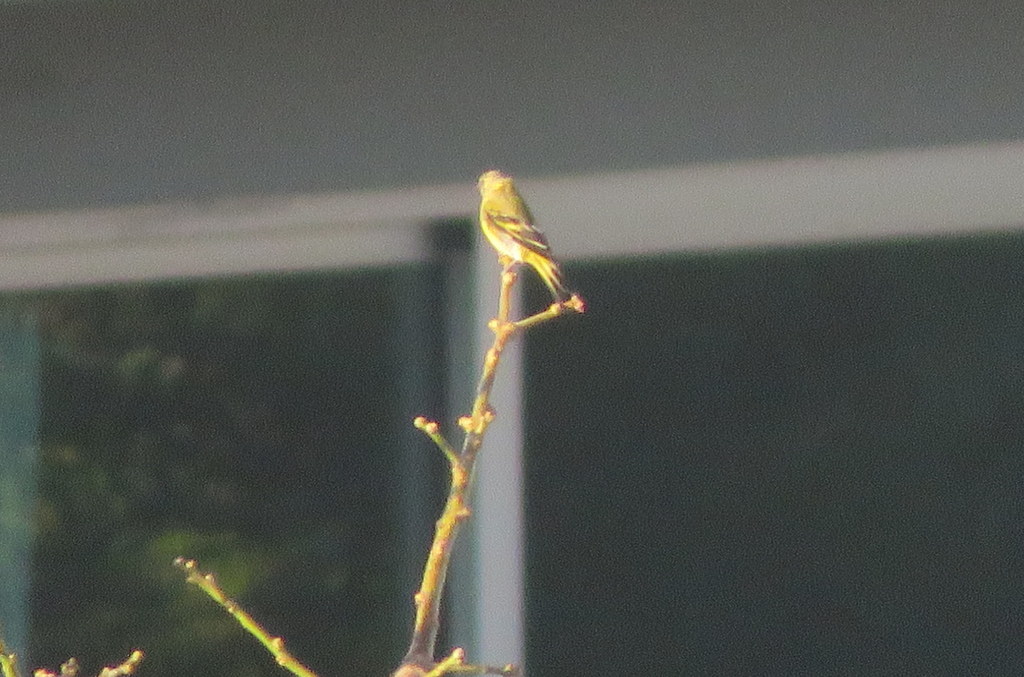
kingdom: Animalia
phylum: Chordata
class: Aves
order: Passeriformes
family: Fringillidae
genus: Spinus
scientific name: Spinus magellanicus
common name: Hooded siskin
